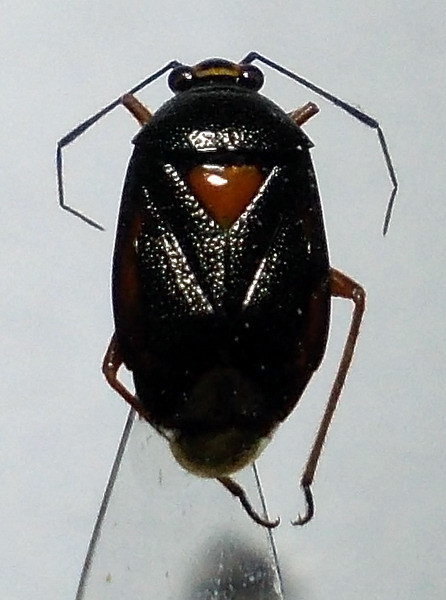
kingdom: Animalia
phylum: Arthropoda
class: Insecta
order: Hemiptera
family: Miridae
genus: Deraeocoris
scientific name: Deraeocoris ventralis
